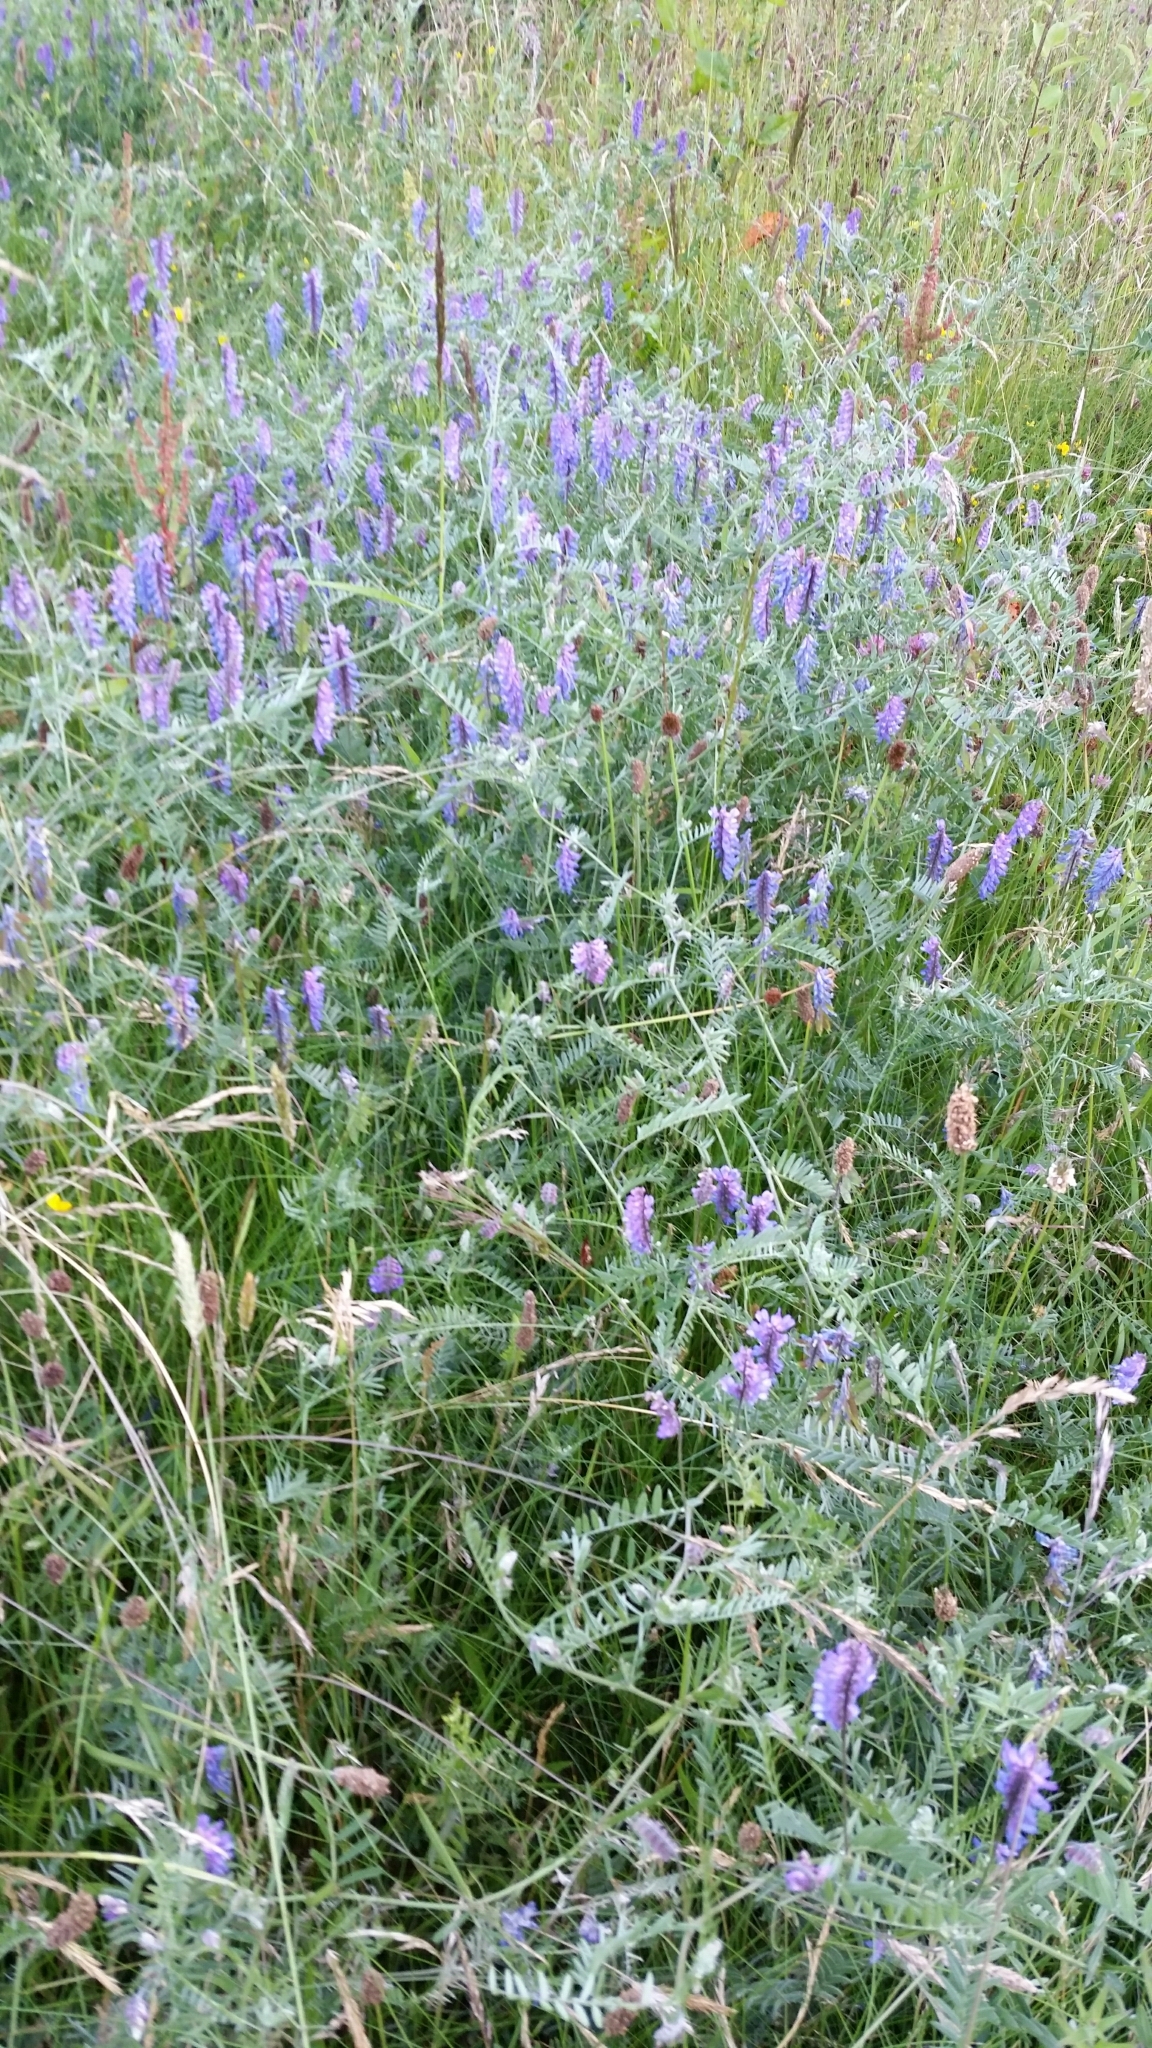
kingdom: Plantae
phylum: Tracheophyta
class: Magnoliopsida
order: Fabales
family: Fabaceae
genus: Vicia
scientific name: Vicia cracca
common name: Bird vetch
